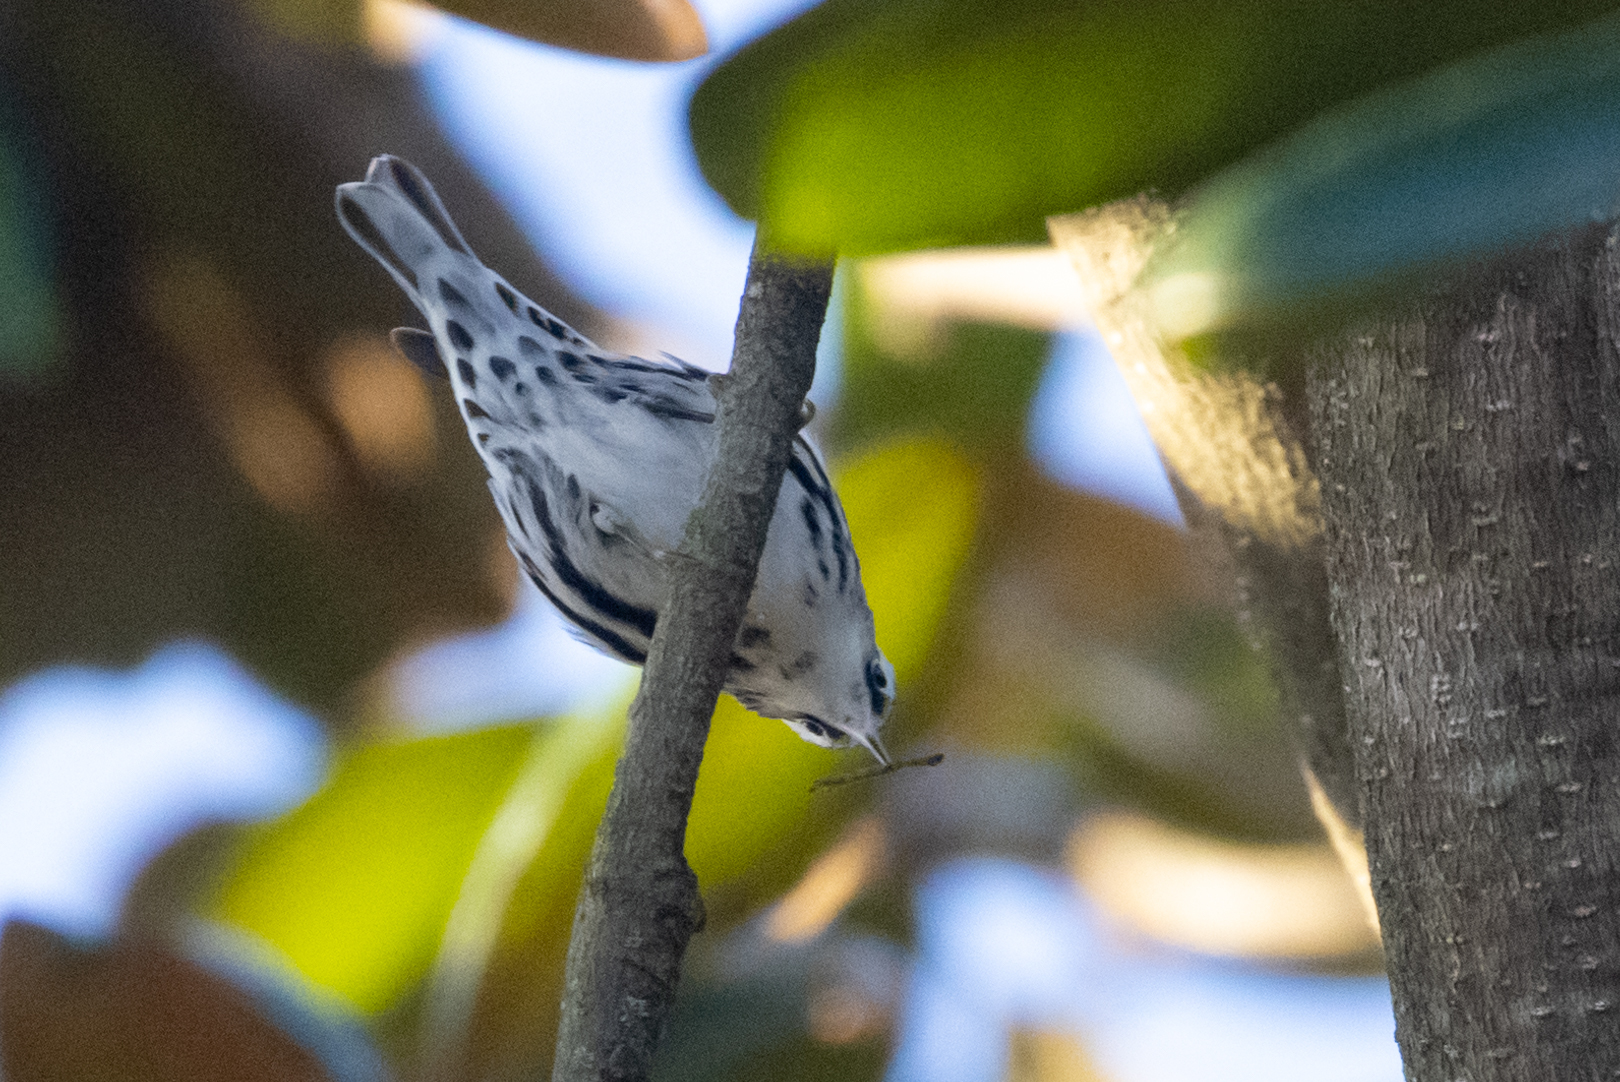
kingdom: Animalia
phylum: Chordata
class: Aves
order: Passeriformes
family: Parulidae
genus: Mniotilta
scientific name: Mniotilta varia
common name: Black-and-white warbler
